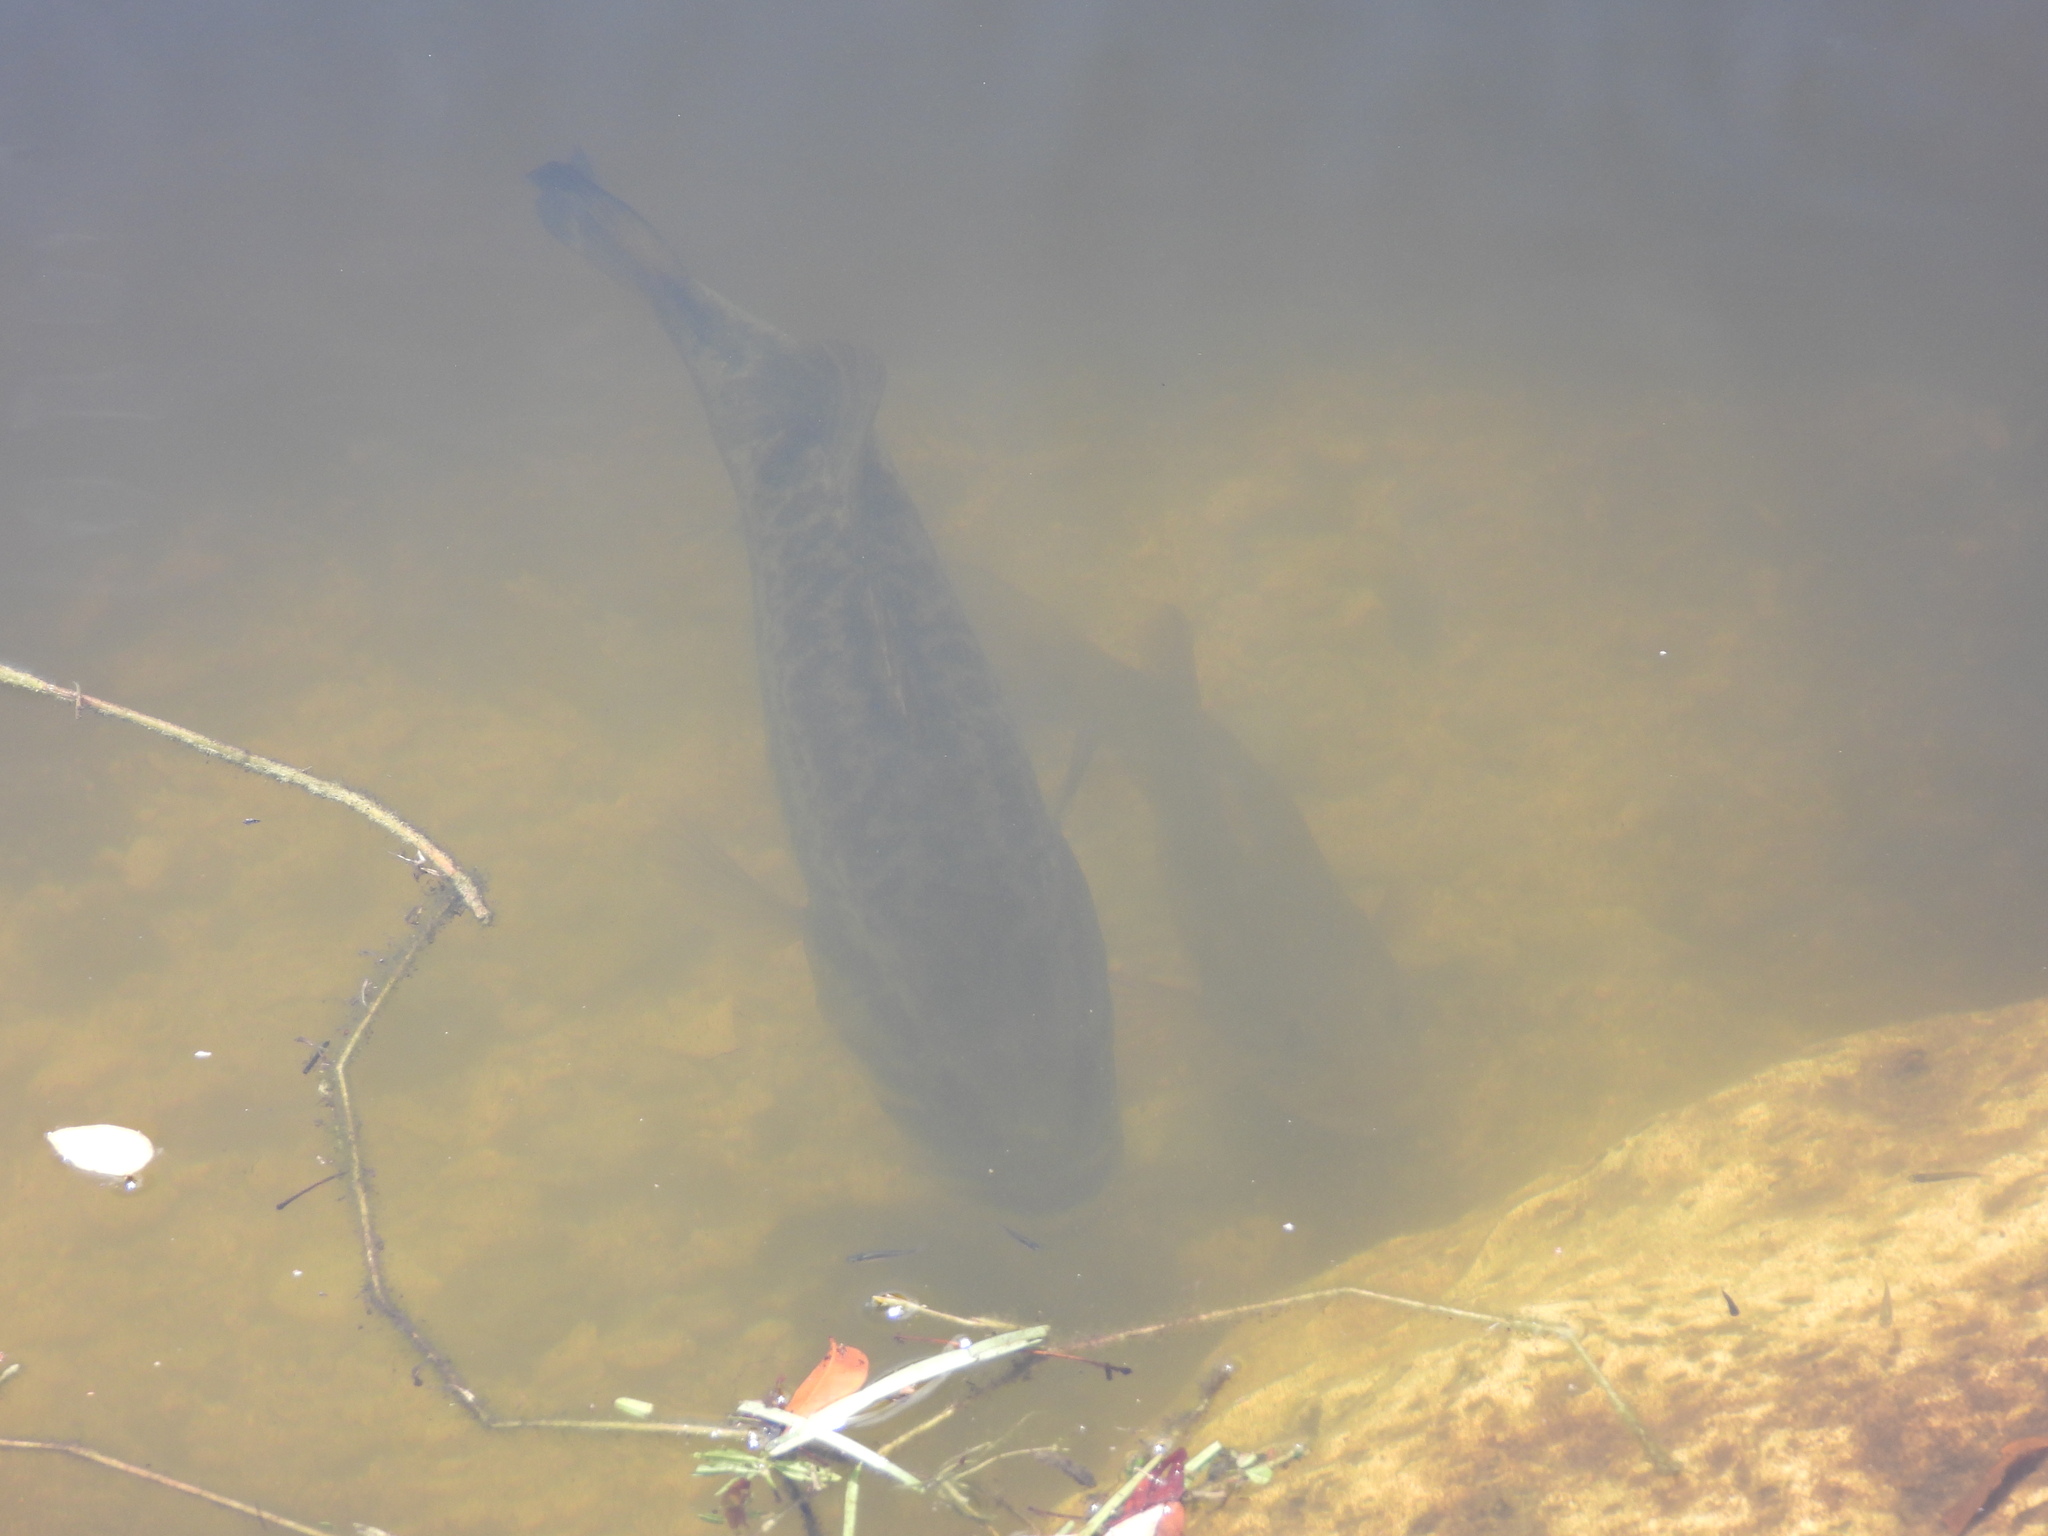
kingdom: Animalia
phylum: Chordata
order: Perciformes
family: Centrarchidae
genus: Micropterus
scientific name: Micropterus salmoides
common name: Largemouth bass
